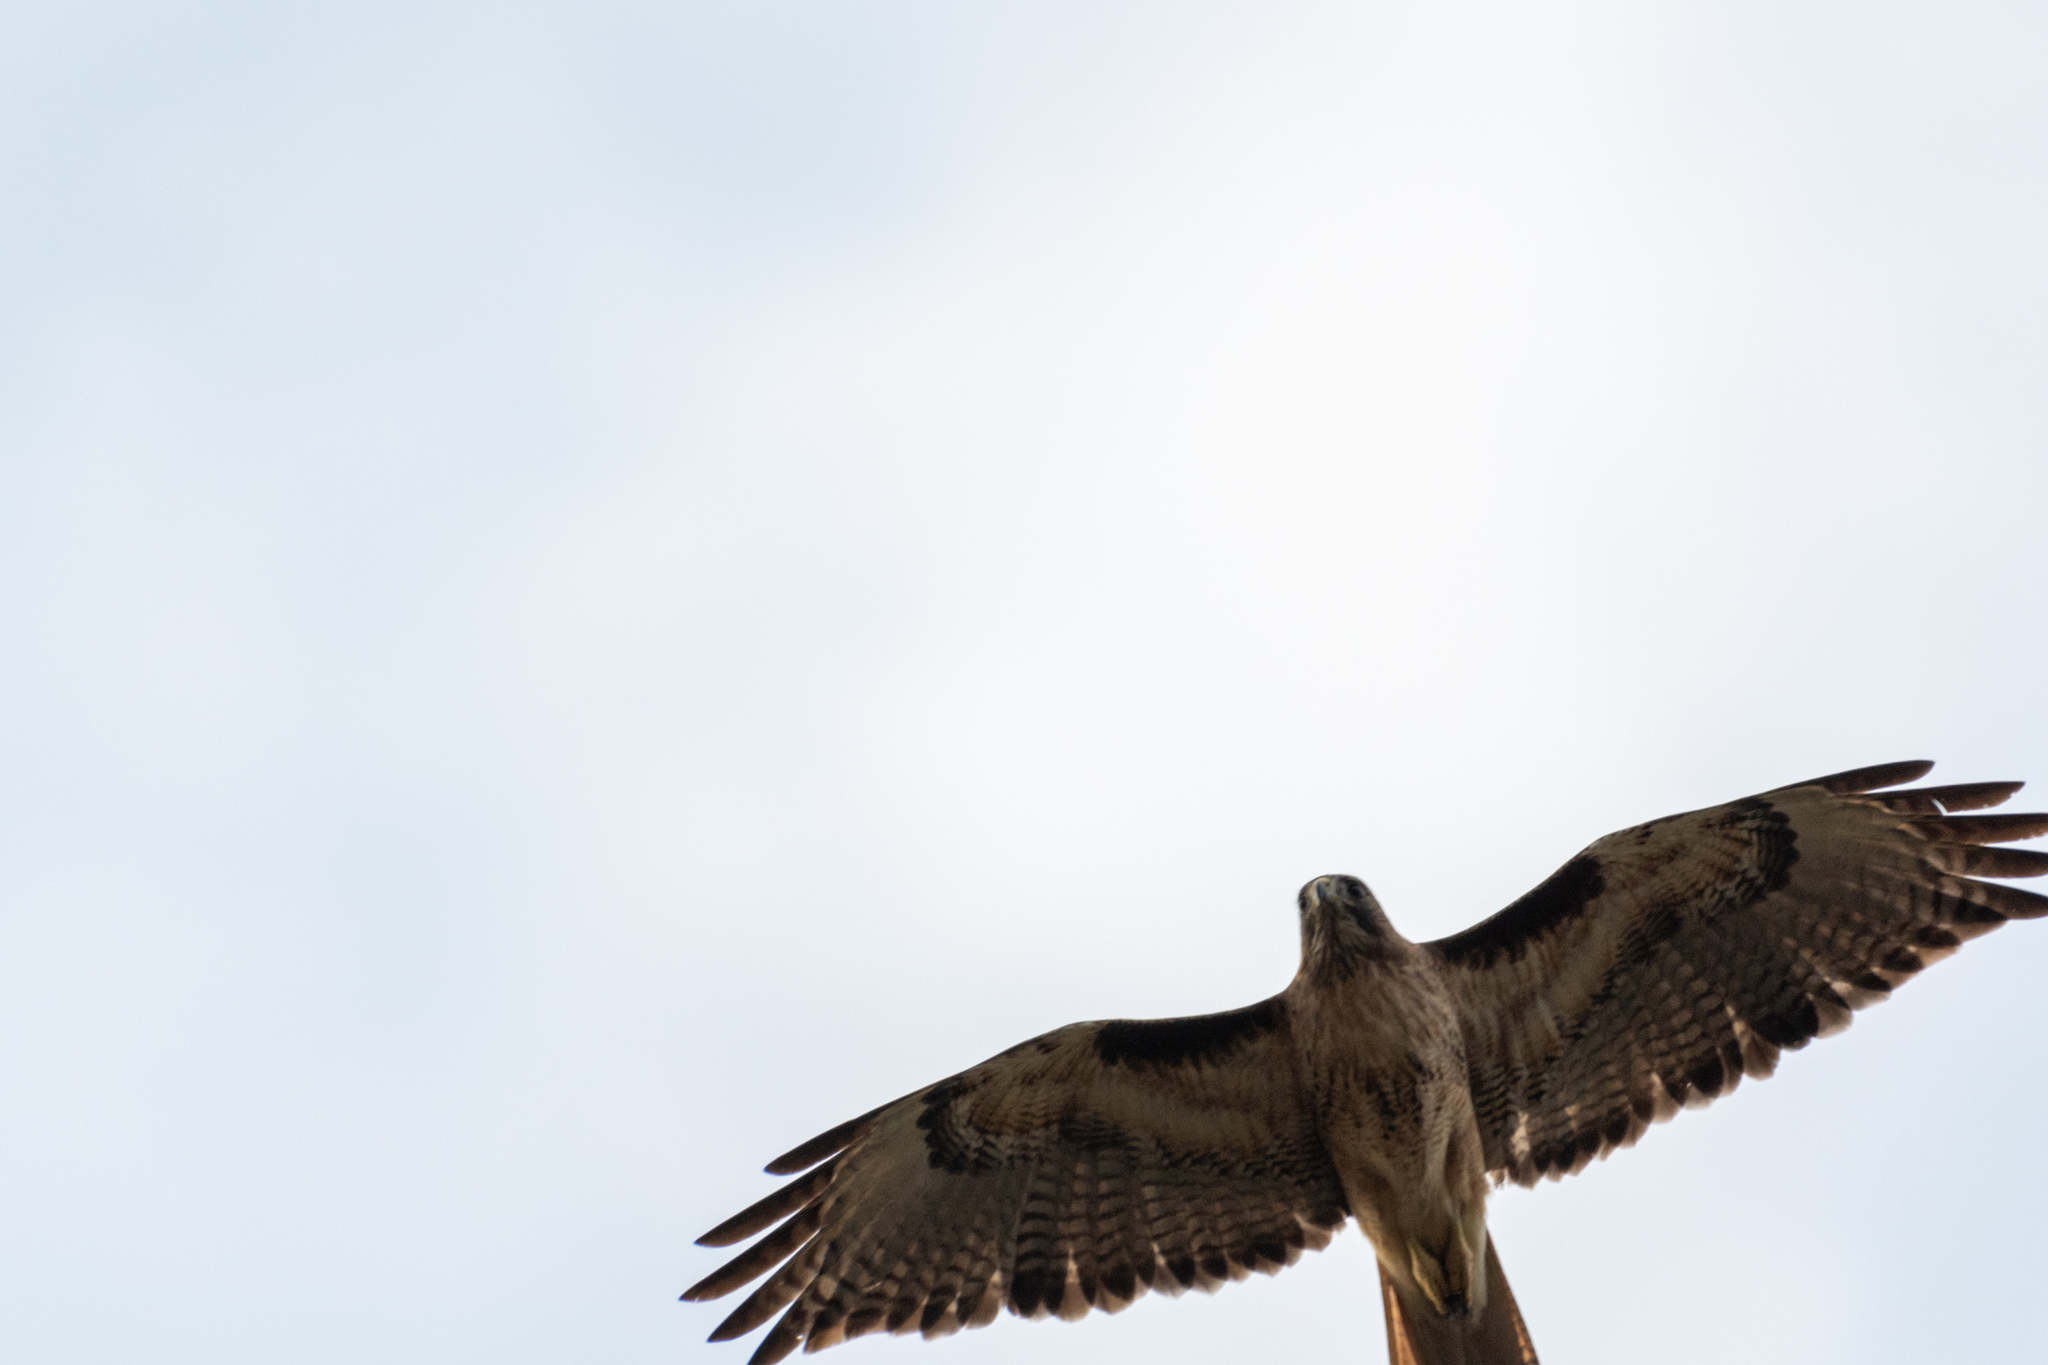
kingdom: Animalia
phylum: Chordata
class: Aves
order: Accipitriformes
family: Accipitridae
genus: Buteo
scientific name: Buteo jamaicensis
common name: Red-tailed hawk
